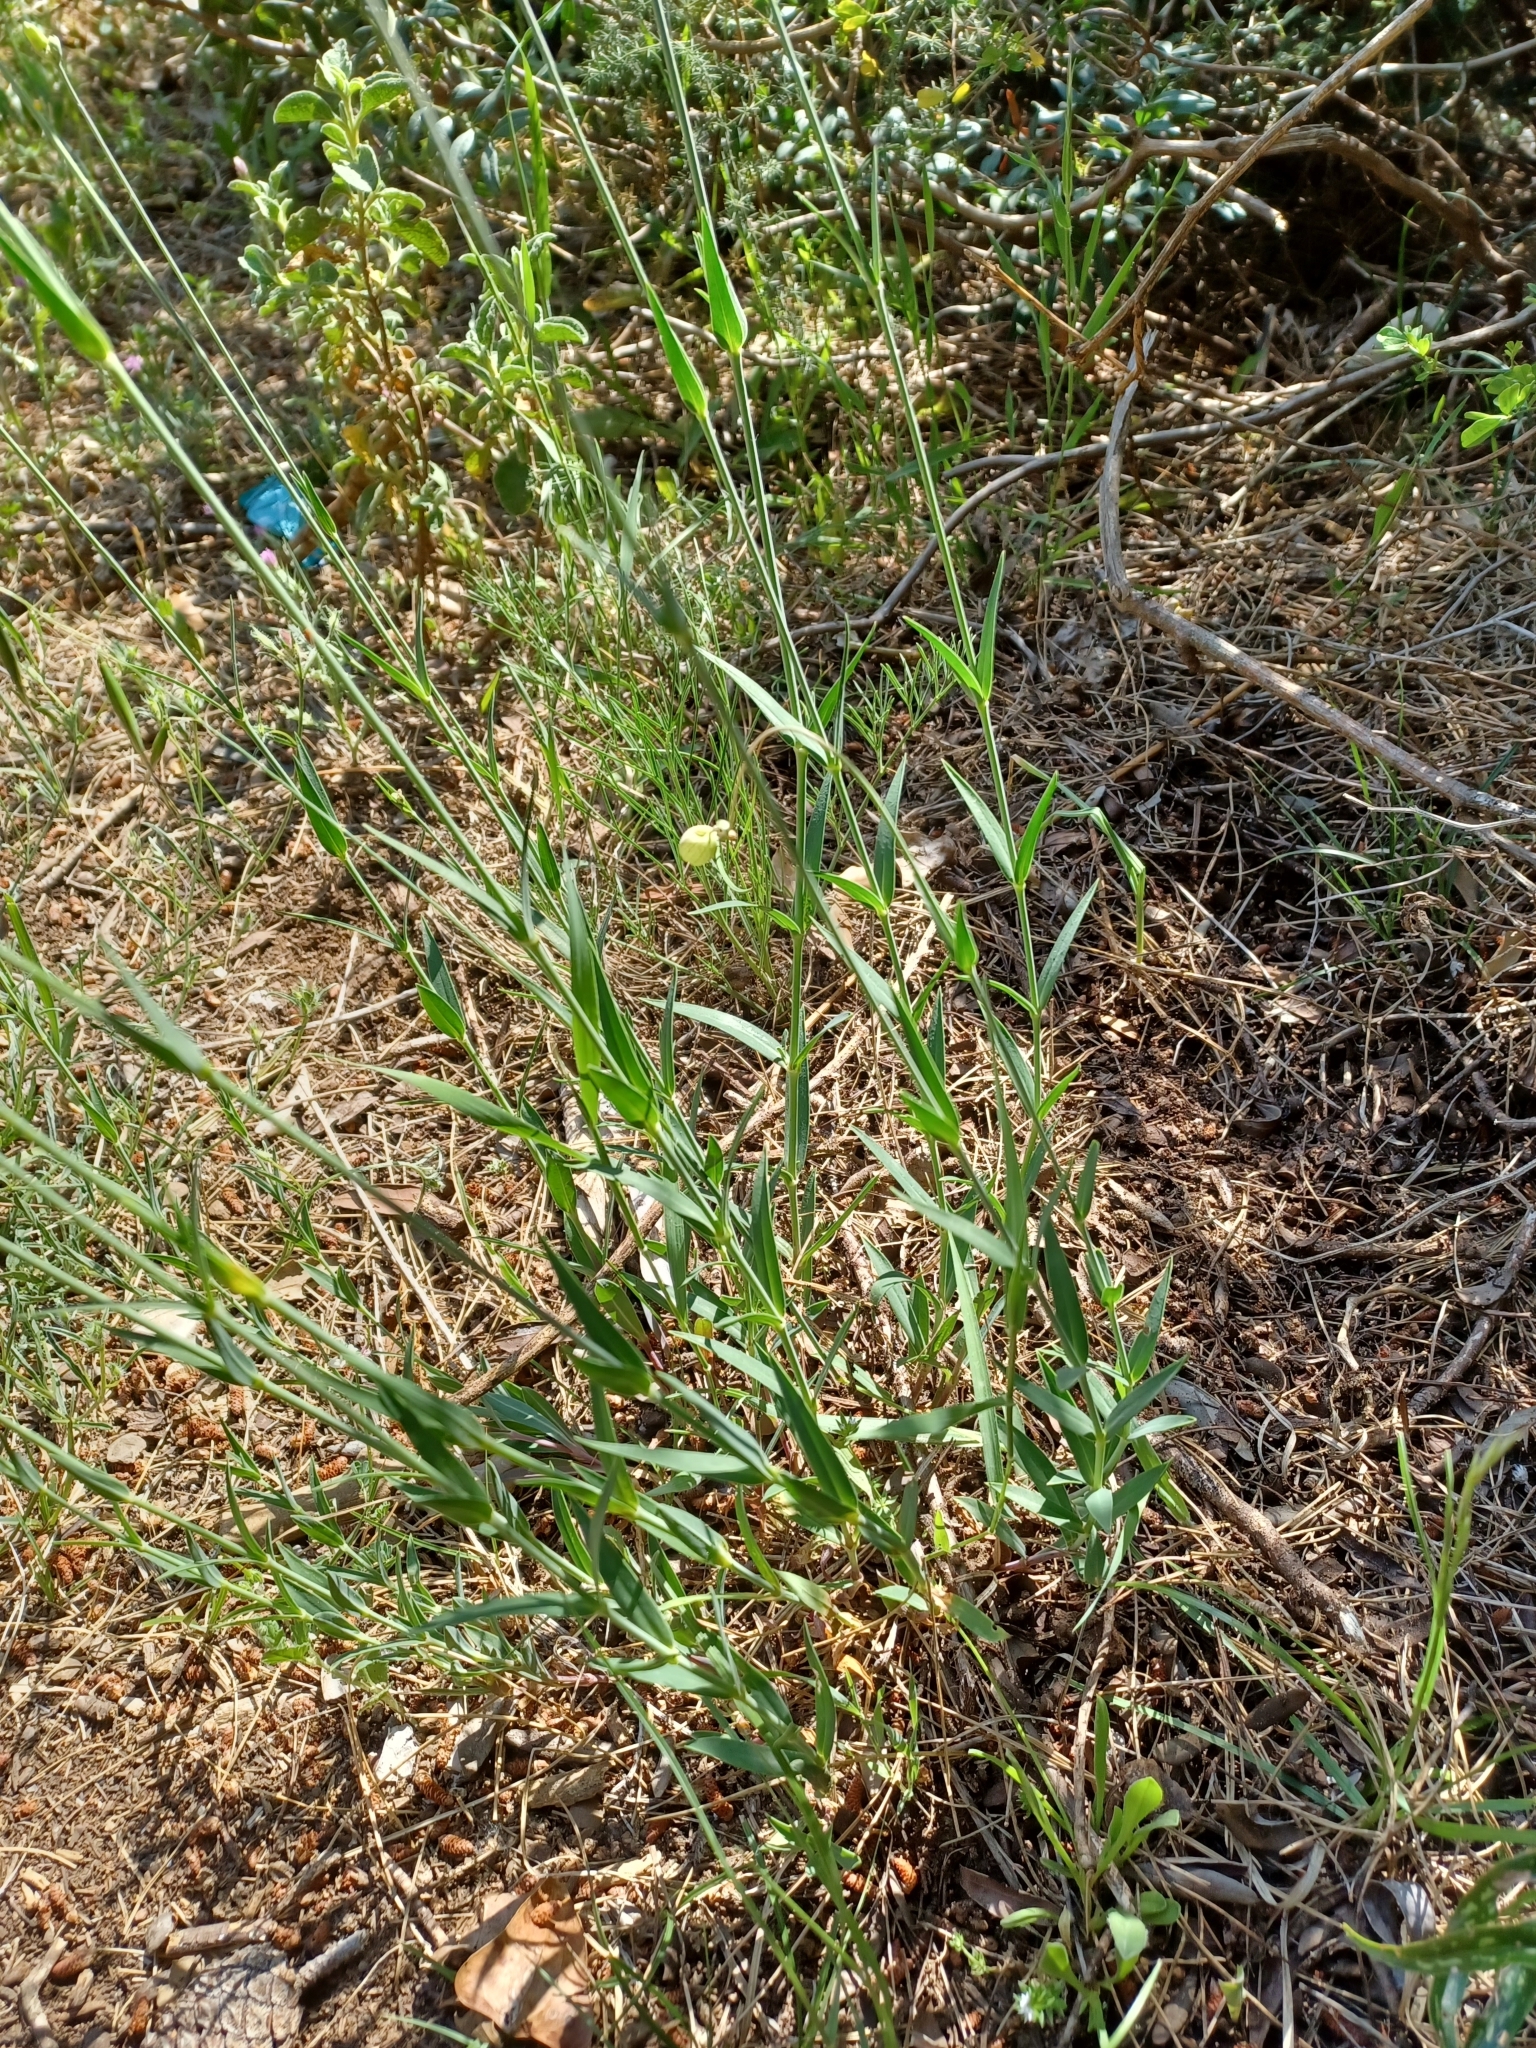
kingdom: Plantae
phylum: Tracheophyta
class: Magnoliopsida
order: Caryophyllales
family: Caryophyllaceae
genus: Silene
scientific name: Silene vulgaris
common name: Bladder campion
